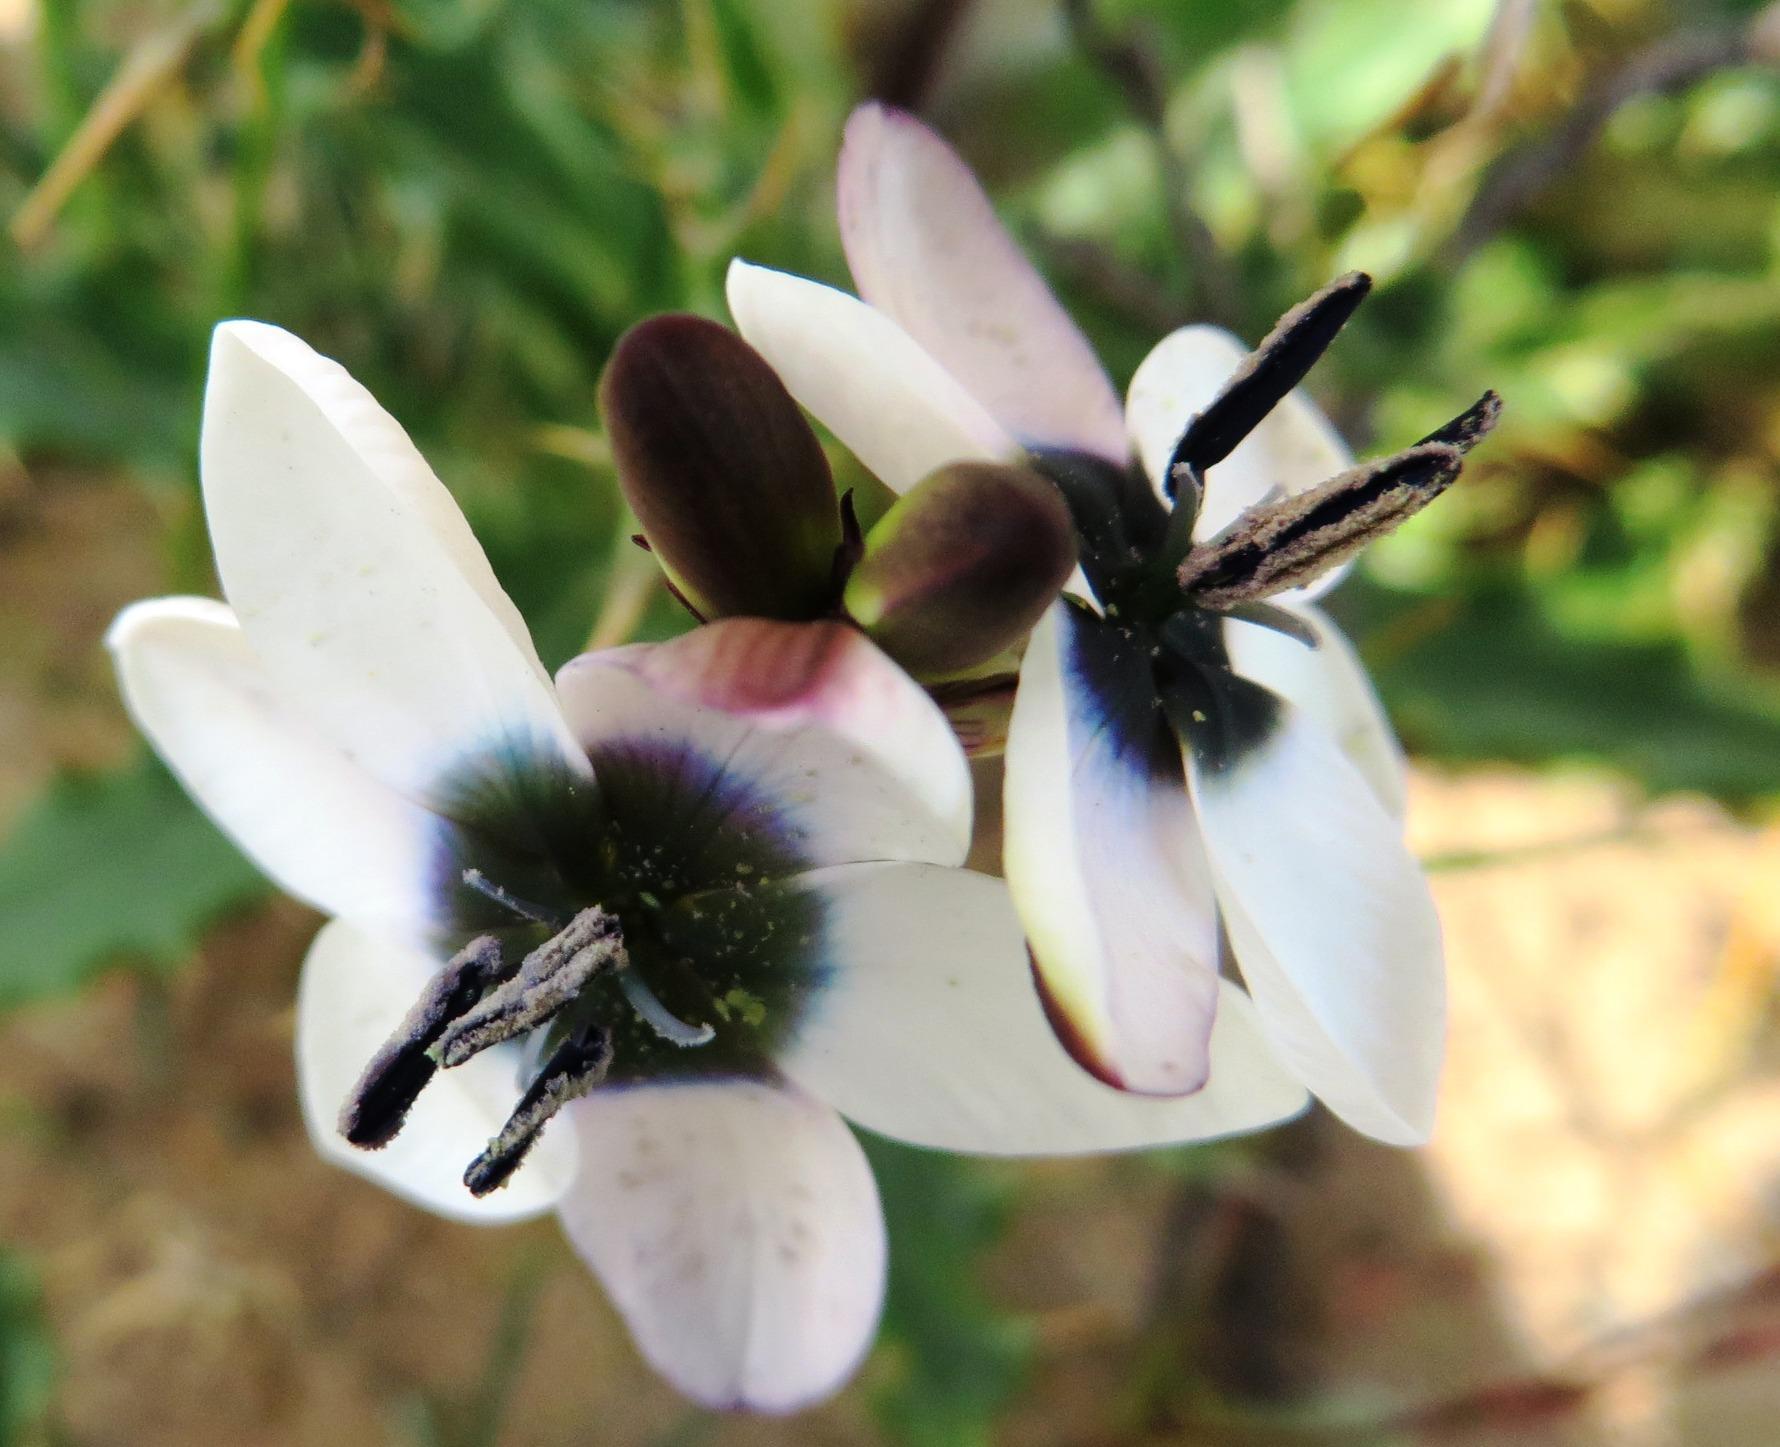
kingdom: Plantae
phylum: Tracheophyta
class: Liliopsida
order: Asparagales
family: Iridaceae
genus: Ixia
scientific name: Ixia versicolor
